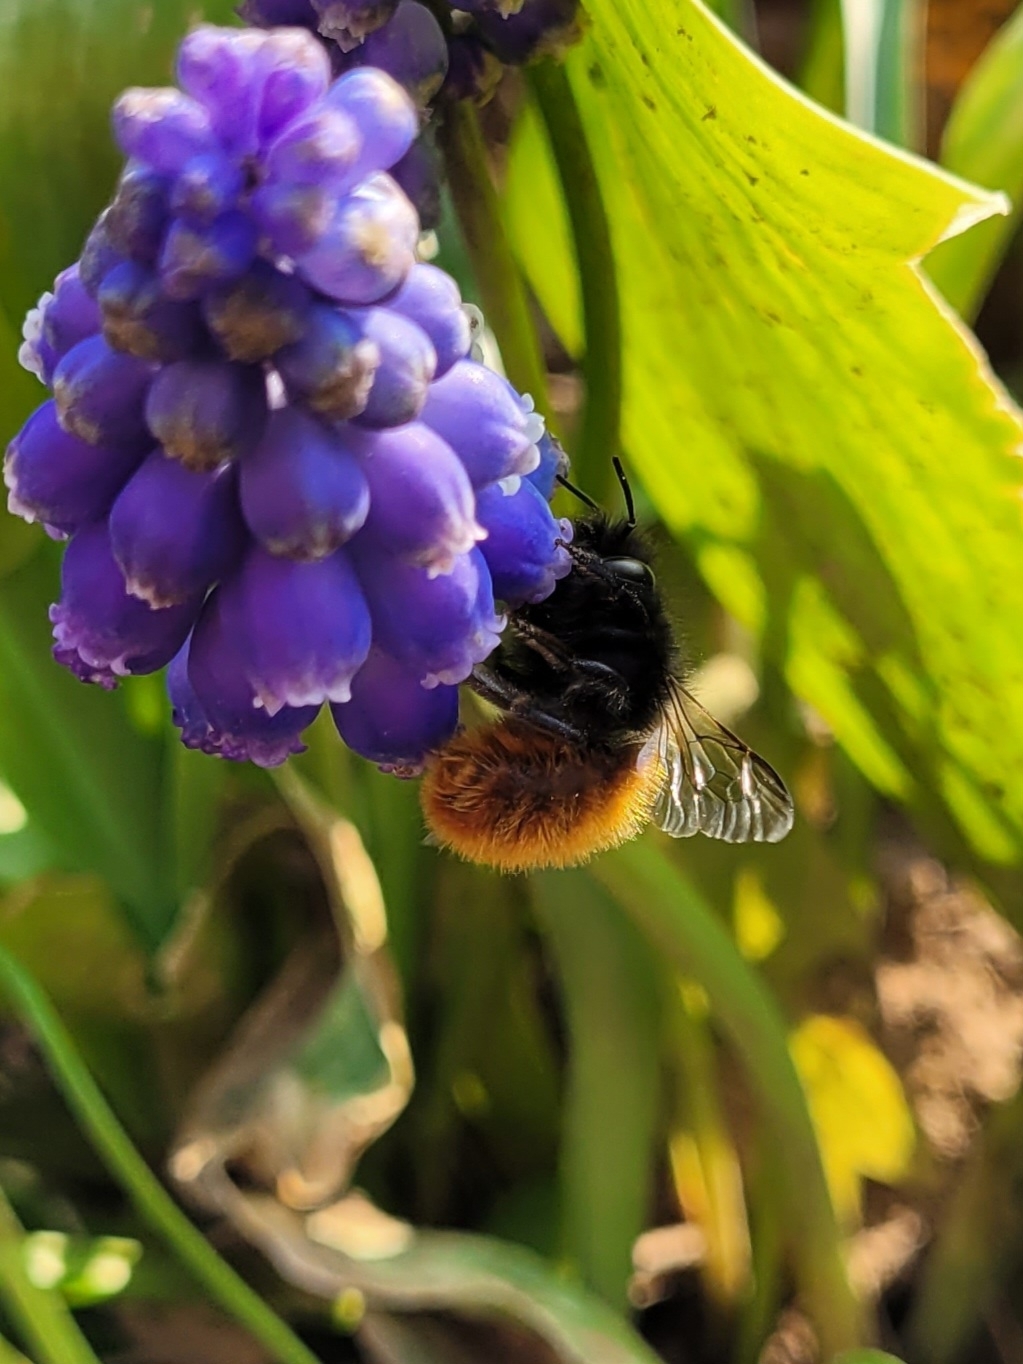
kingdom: Animalia
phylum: Arthropoda
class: Insecta
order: Hymenoptera
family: Megachilidae
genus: Osmia
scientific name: Osmia cornuta
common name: Mason bee
